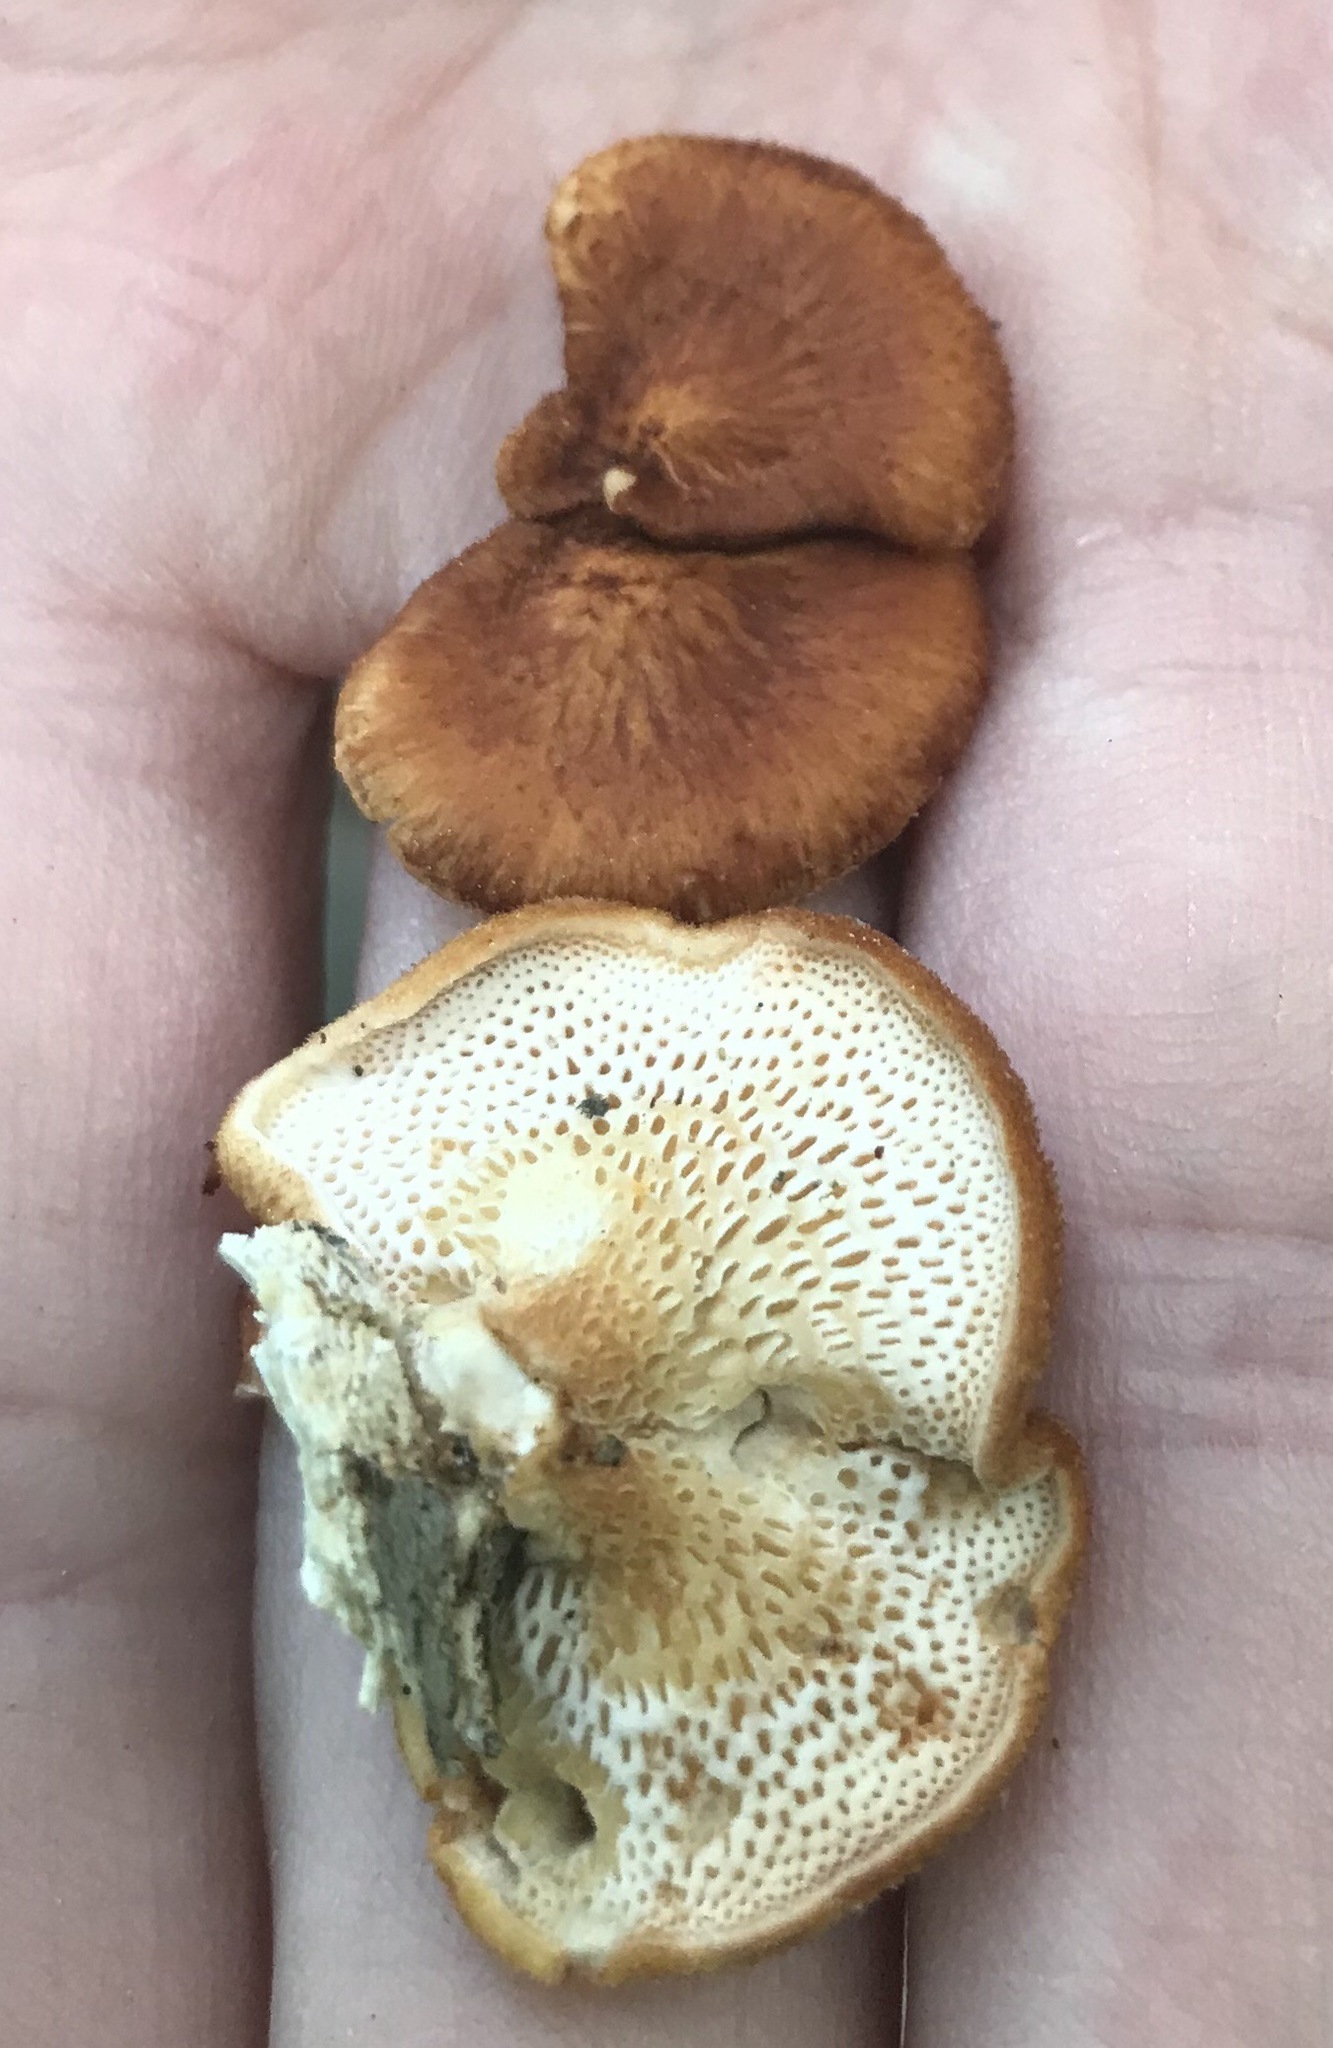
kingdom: Fungi
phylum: Basidiomycota
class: Agaricomycetes
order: Polyporales
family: Polyporaceae
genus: Neofavolus
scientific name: Neofavolus alveolaris
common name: Hexagonal-pored polypore
